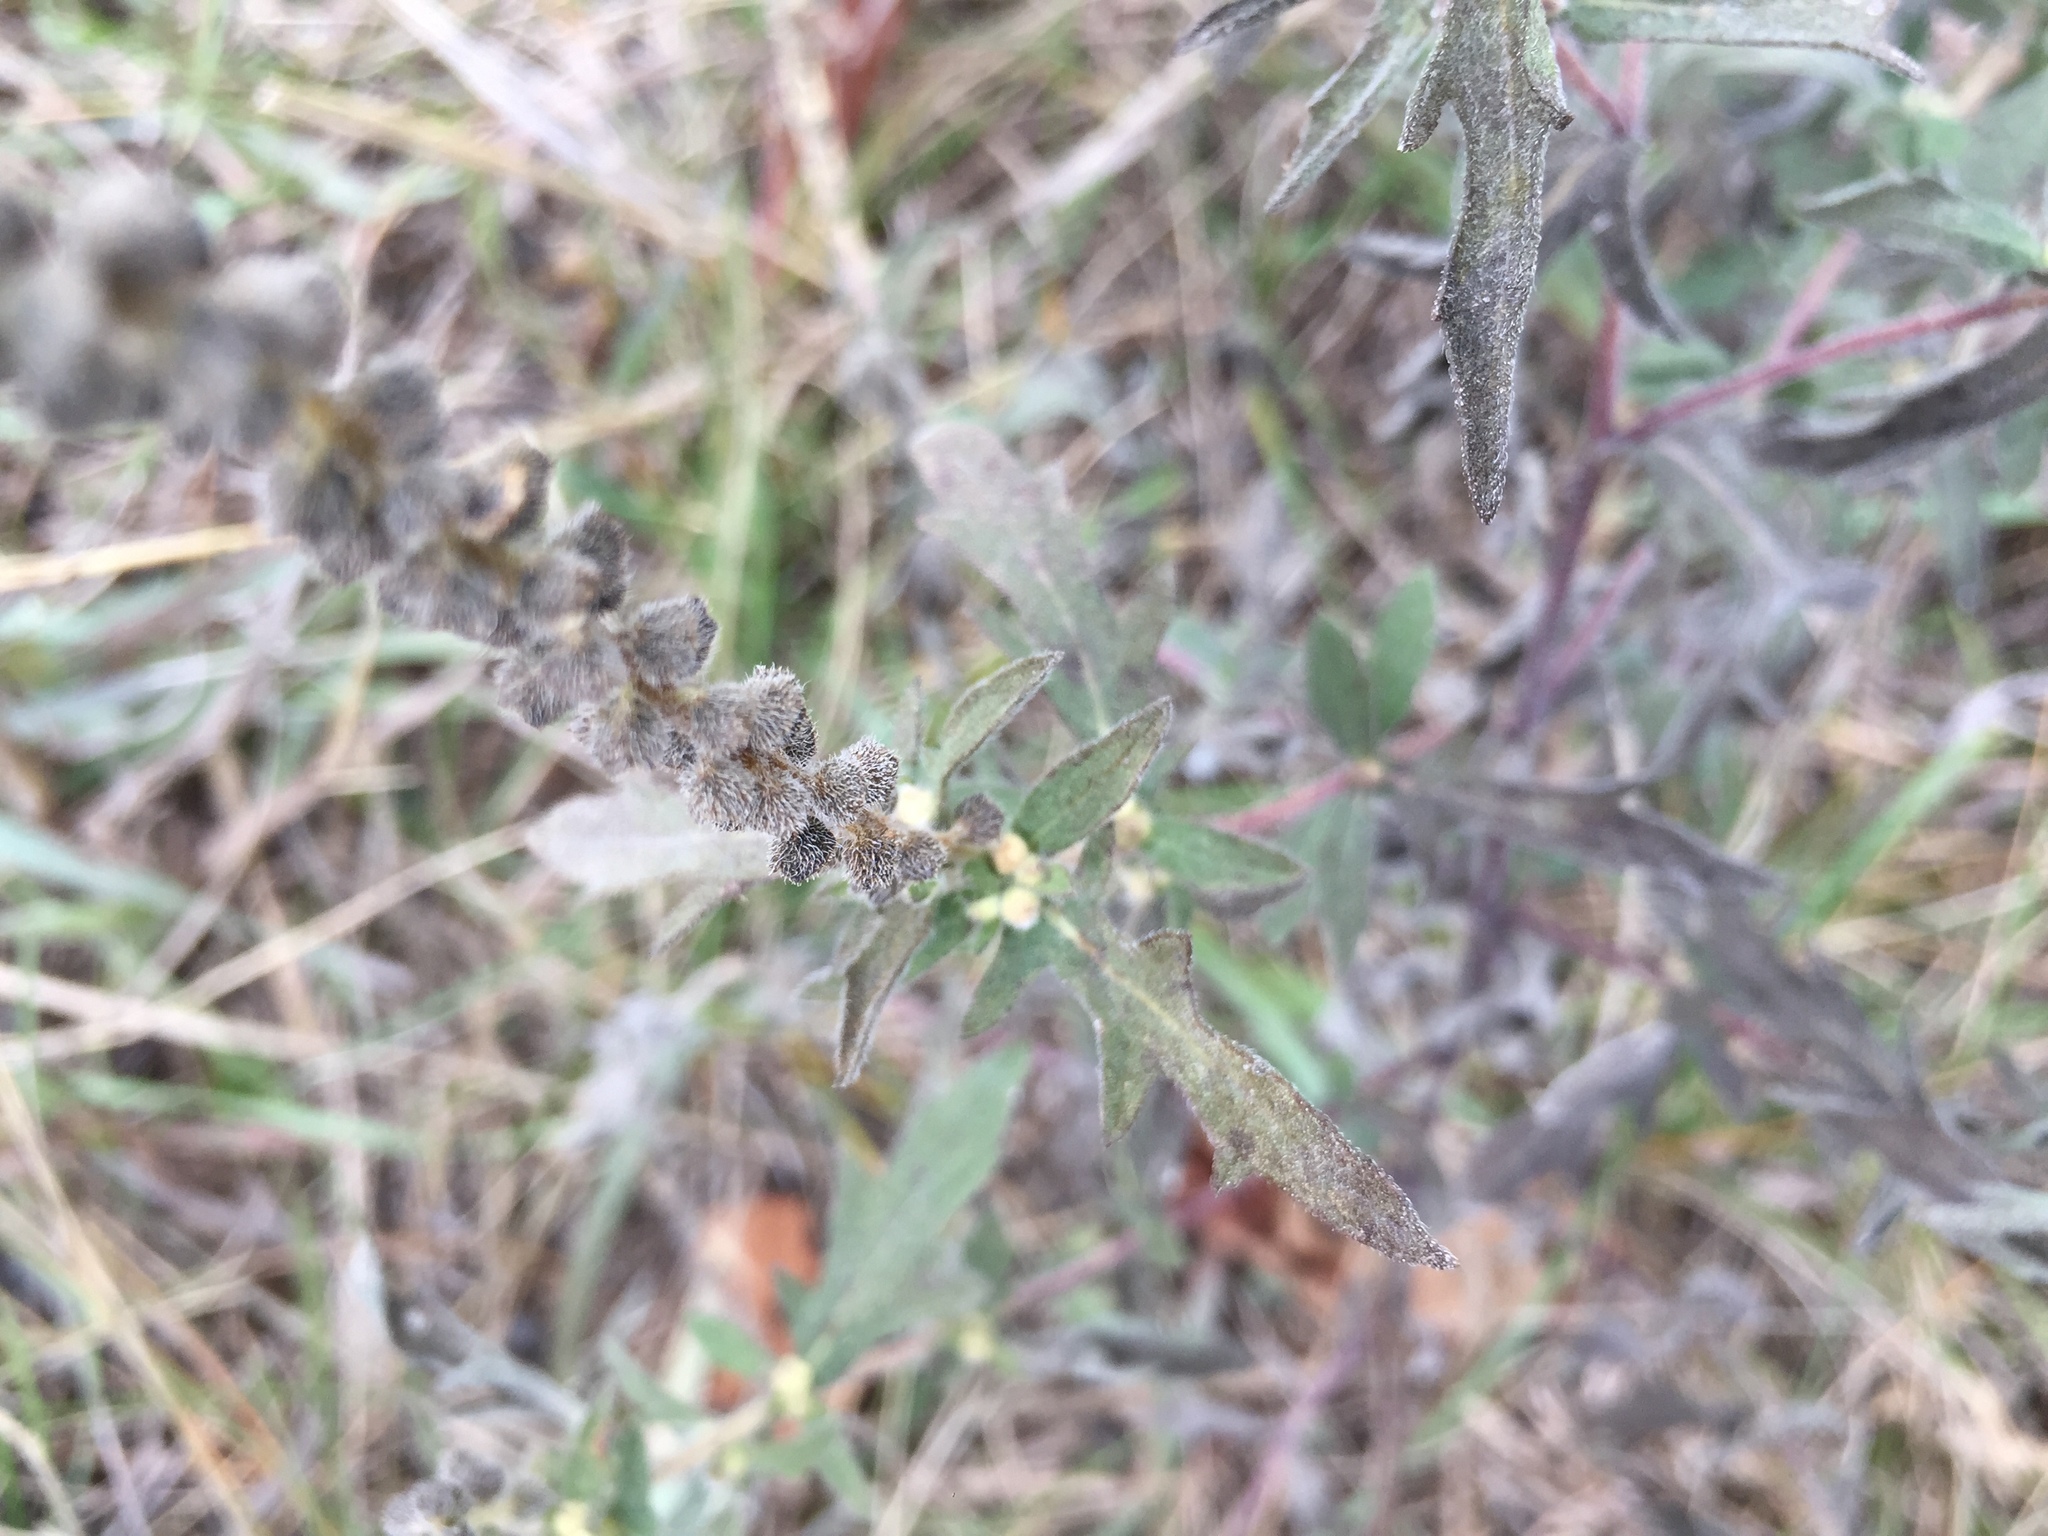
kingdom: Plantae
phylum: Tracheophyta
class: Magnoliopsida
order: Asterales
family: Asteraceae
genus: Ambrosia
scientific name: Ambrosia psilostachya
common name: Perennial ragweed
